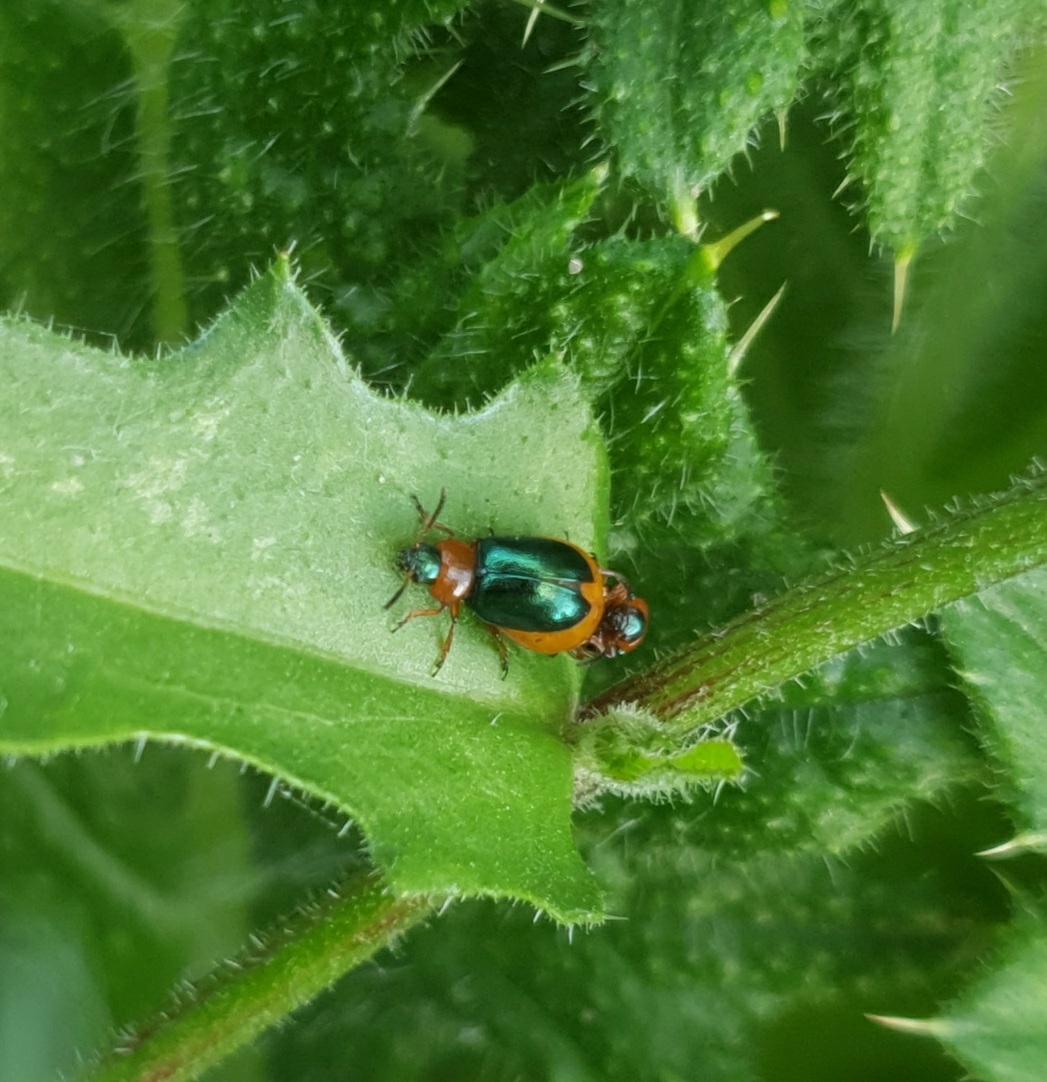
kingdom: Animalia
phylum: Arthropoda
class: Insecta
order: Coleoptera
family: Chrysomelidae
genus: Gastrophysa
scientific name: Gastrophysa polygoni
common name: Knotweed leaf beetle
